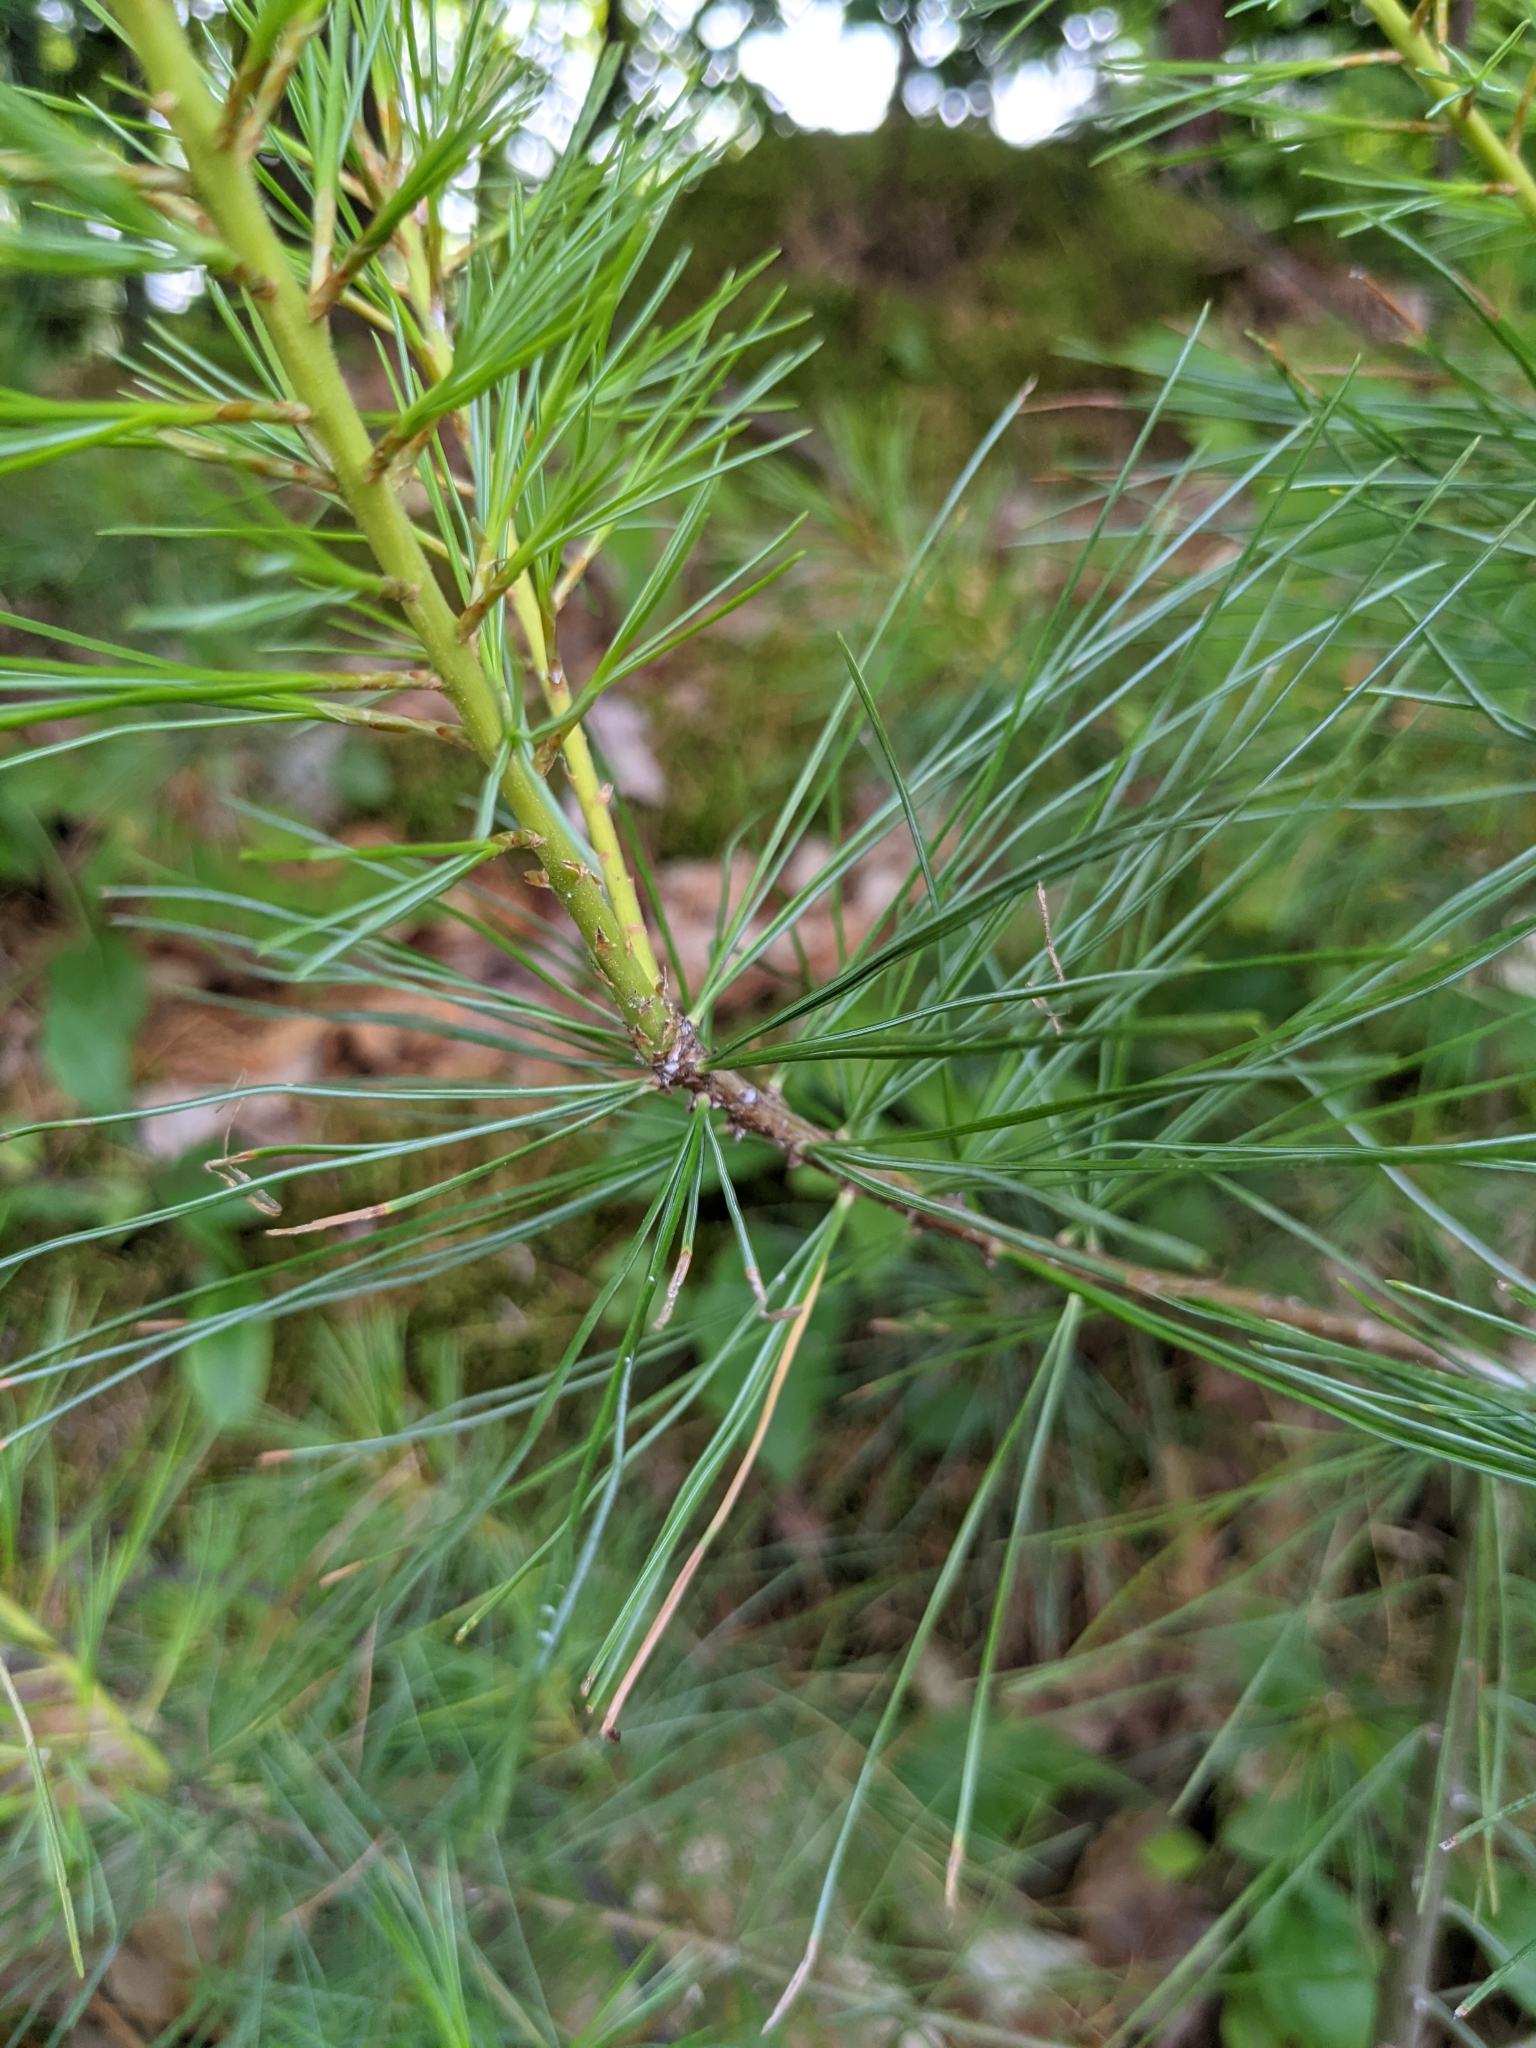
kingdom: Plantae
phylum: Tracheophyta
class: Pinopsida
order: Pinales
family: Pinaceae
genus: Pinus
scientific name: Pinus strobus
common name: Weymouth pine
